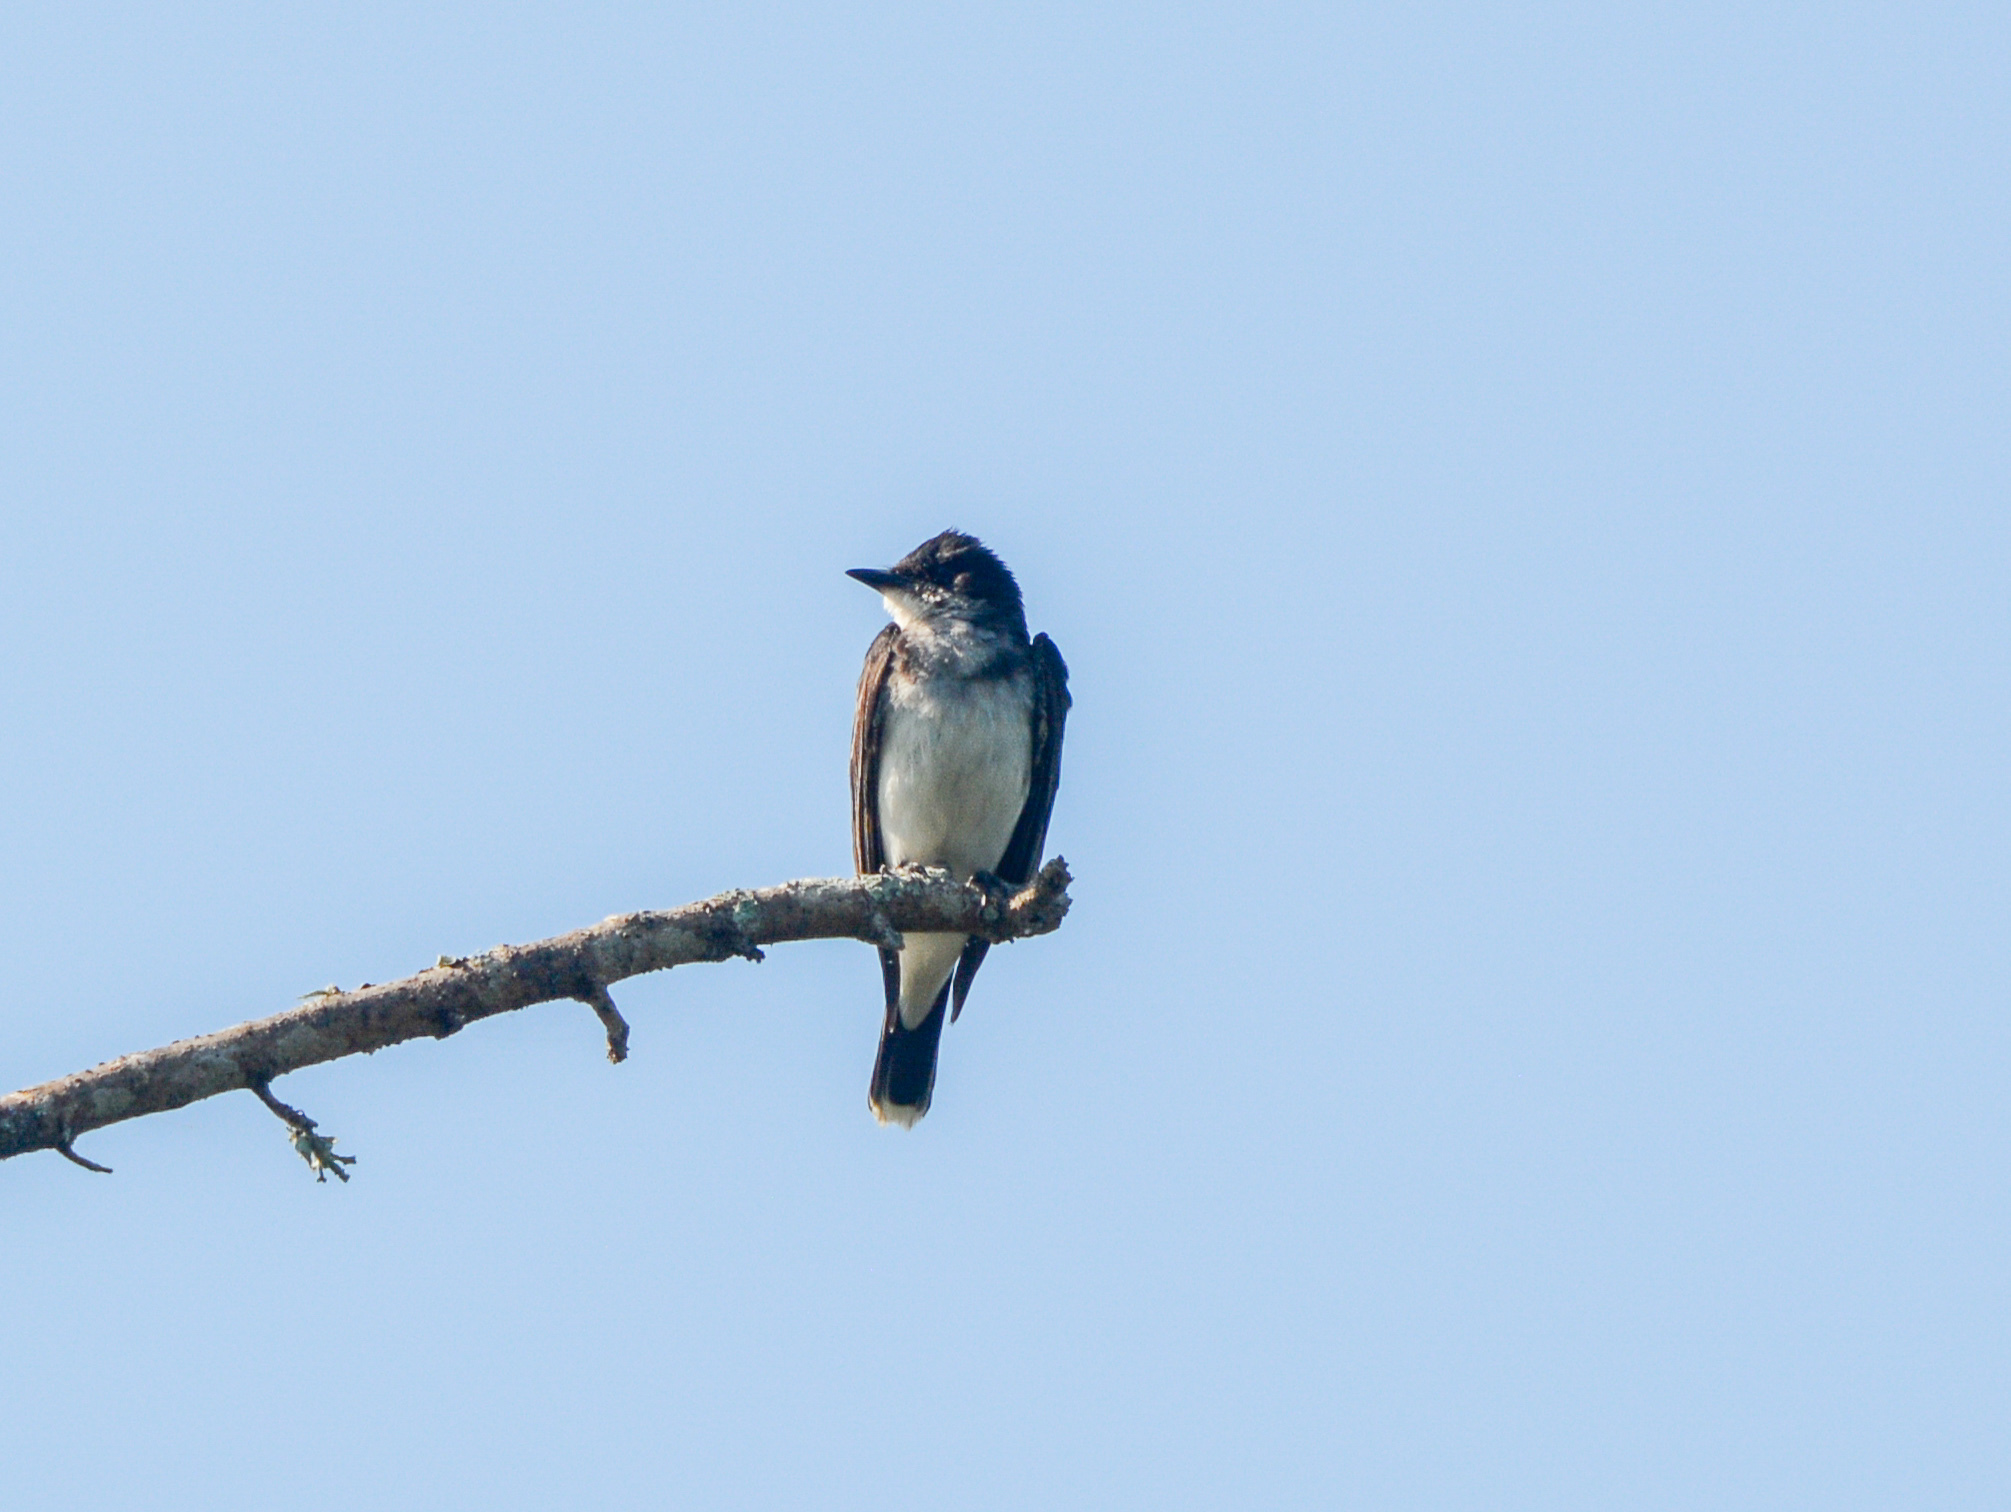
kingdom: Animalia
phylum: Chordata
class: Aves
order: Passeriformes
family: Tyrannidae
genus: Tyrannus
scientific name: Tyrannus tyrannus
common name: Eastern kingbird
